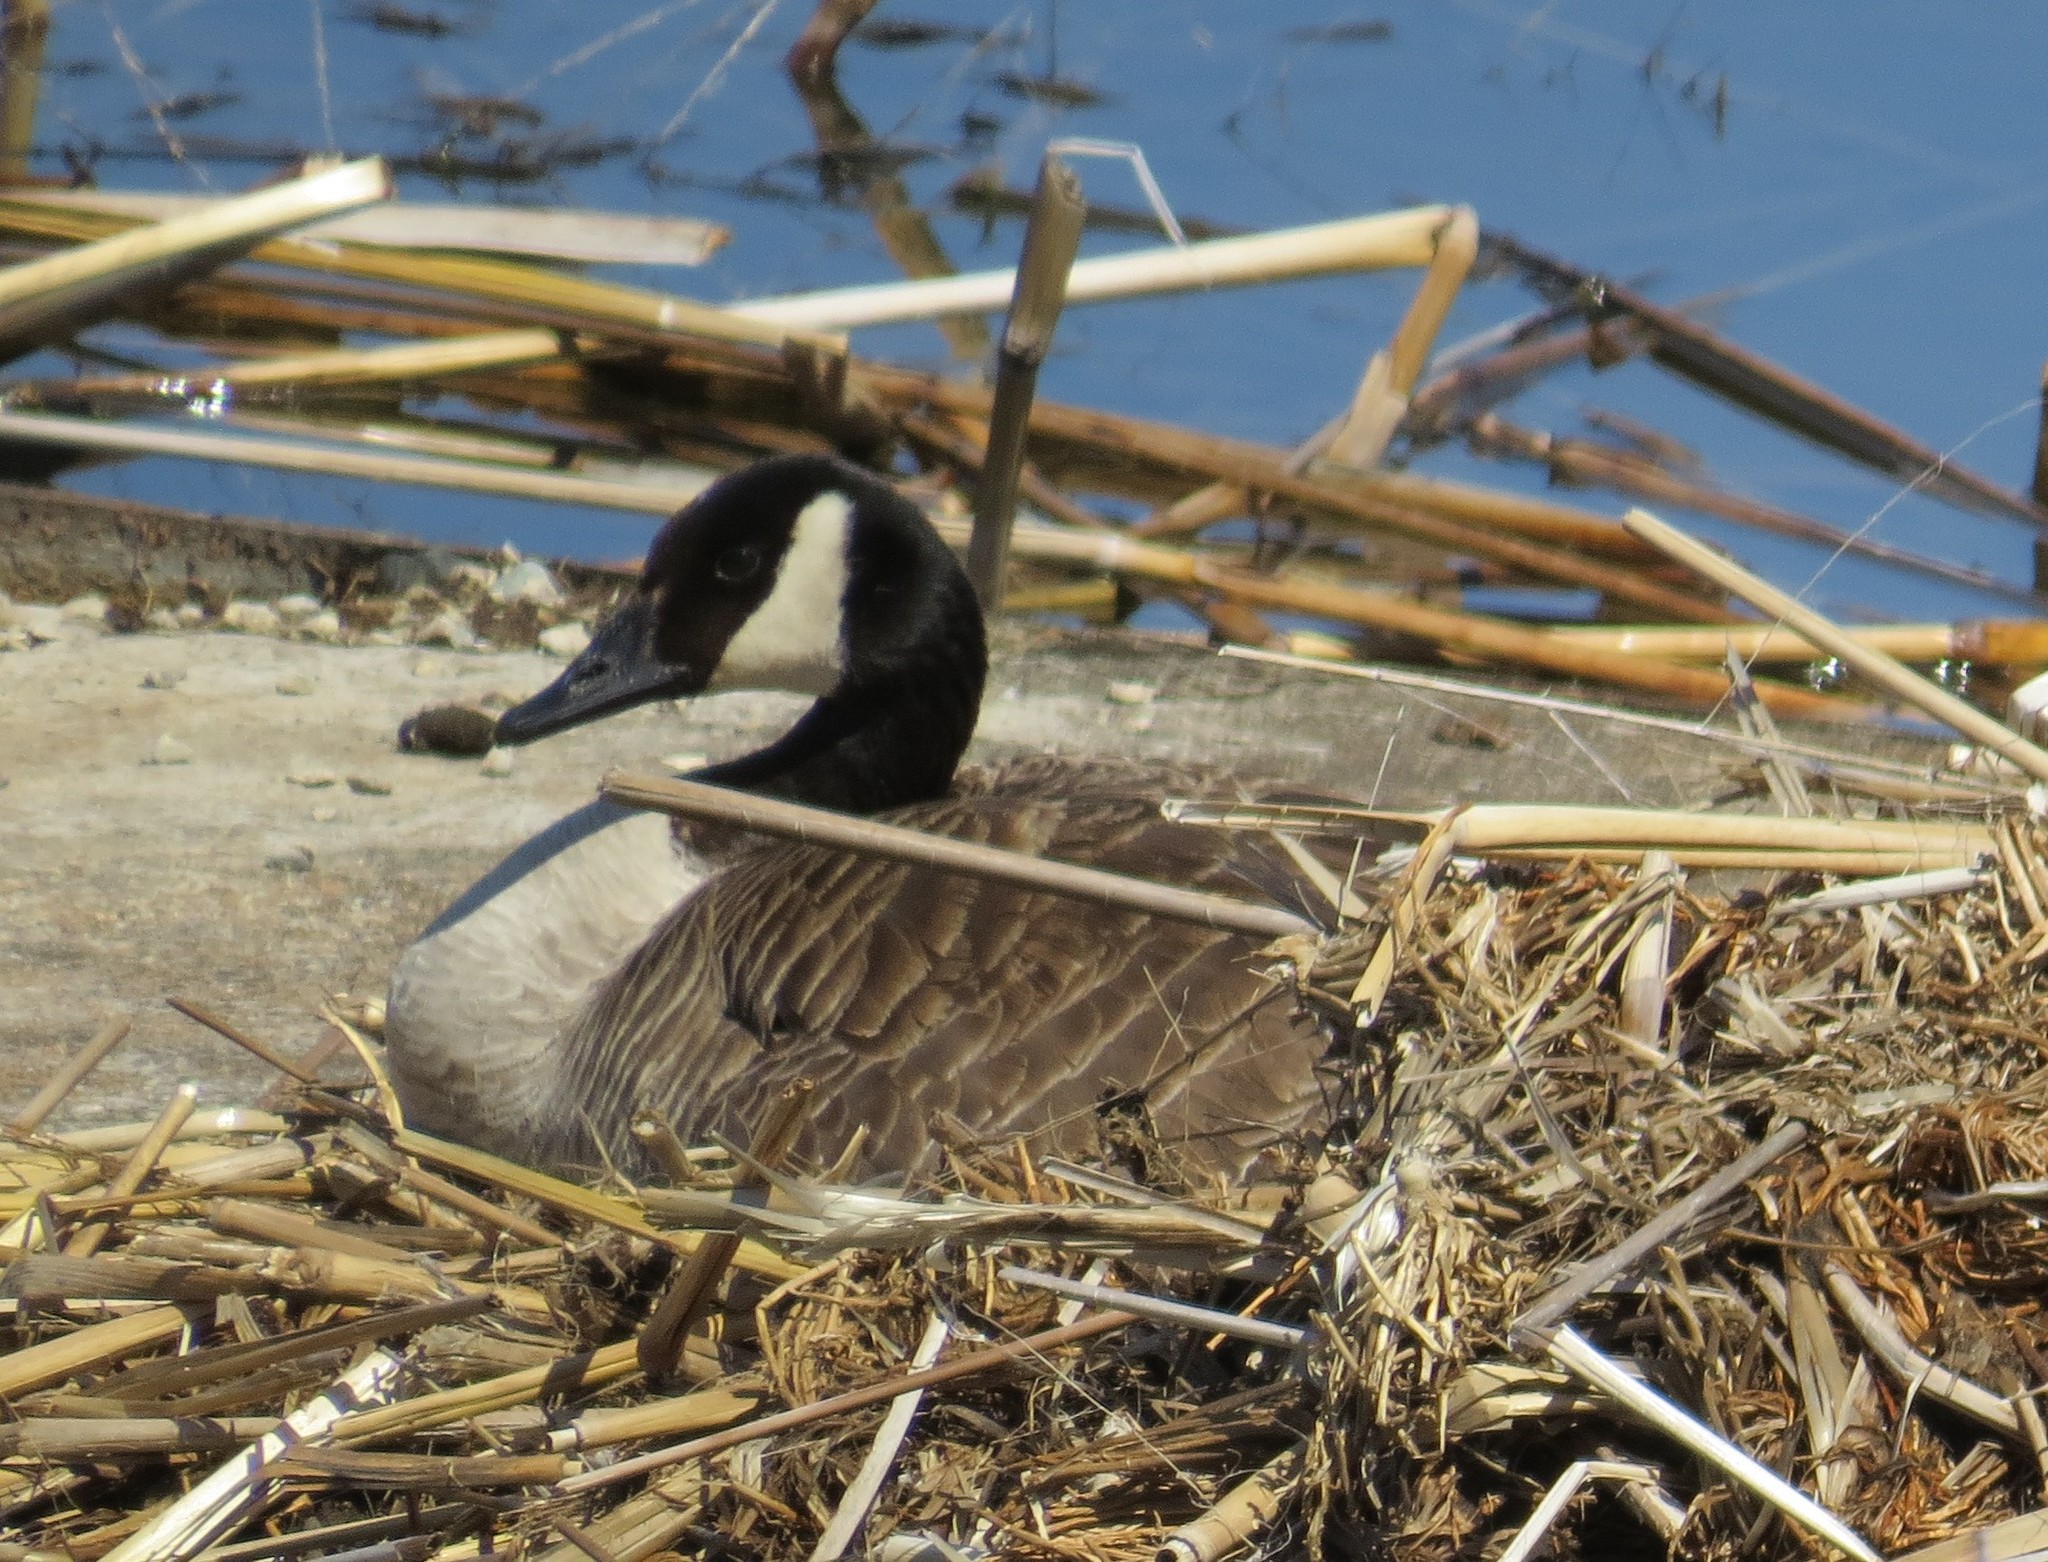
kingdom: Animalia
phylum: Chordata
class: Aves
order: Anseriformes
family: Anatidae
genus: Branta
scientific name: Branta canadensis
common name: Canada goose
